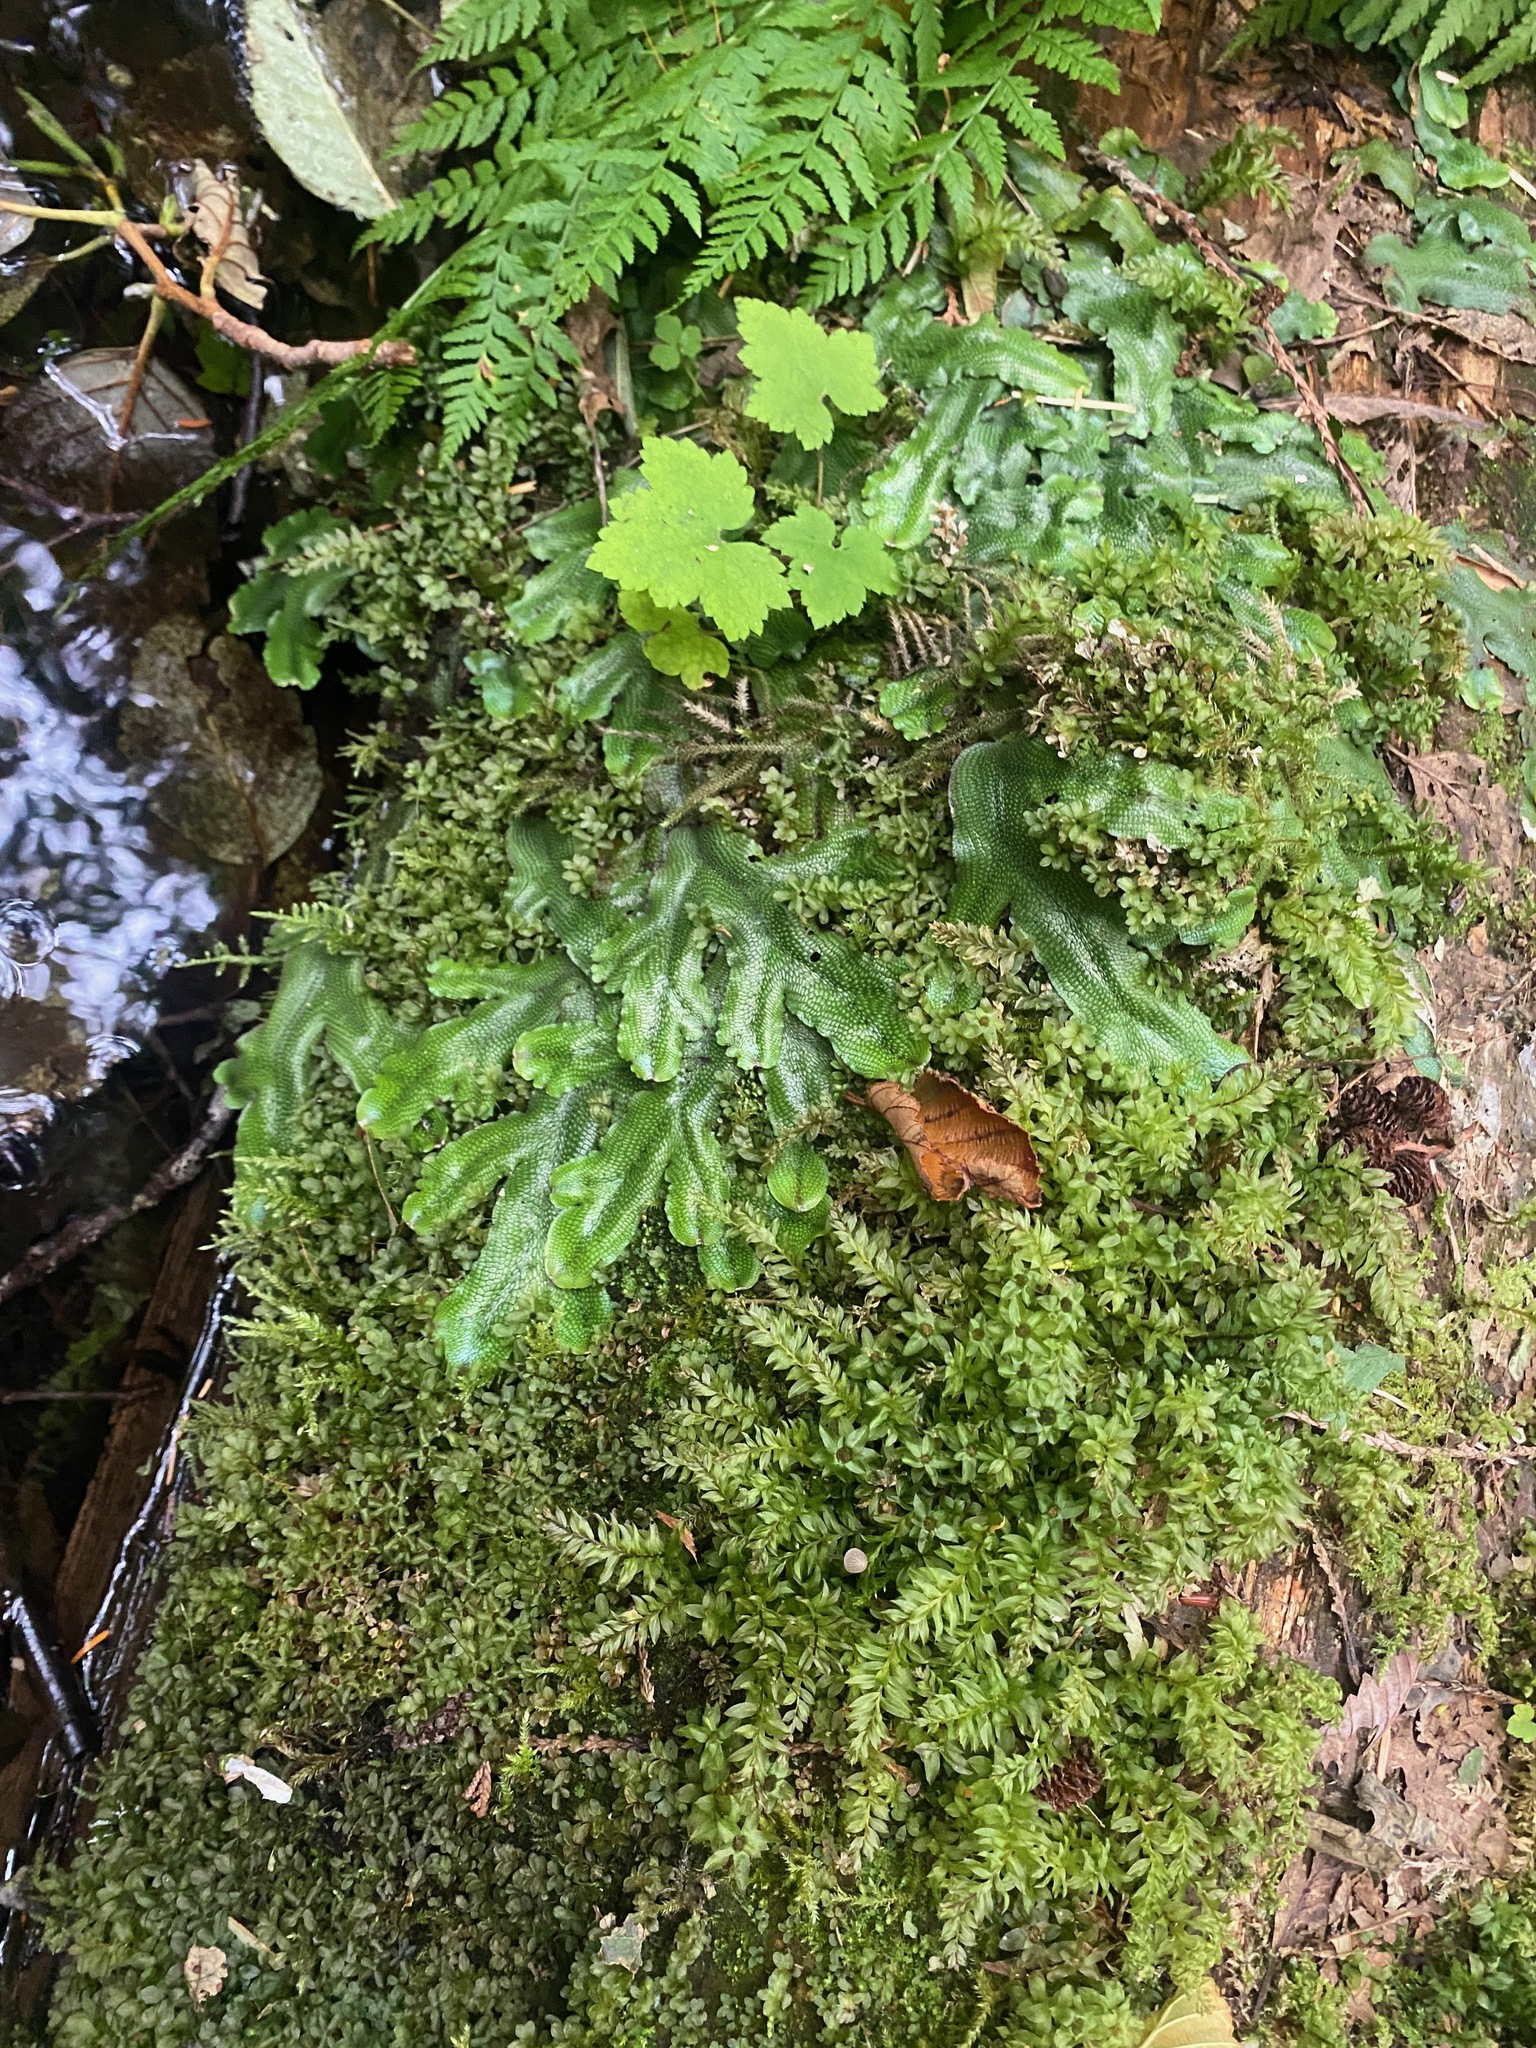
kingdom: Plantae
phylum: Marchantiophyta
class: Marchantiopsida
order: Marchantiales
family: Conocephalaceae
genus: Conocephalum
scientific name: Conocephalum salebrosum
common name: Cat-tongue liverwort
